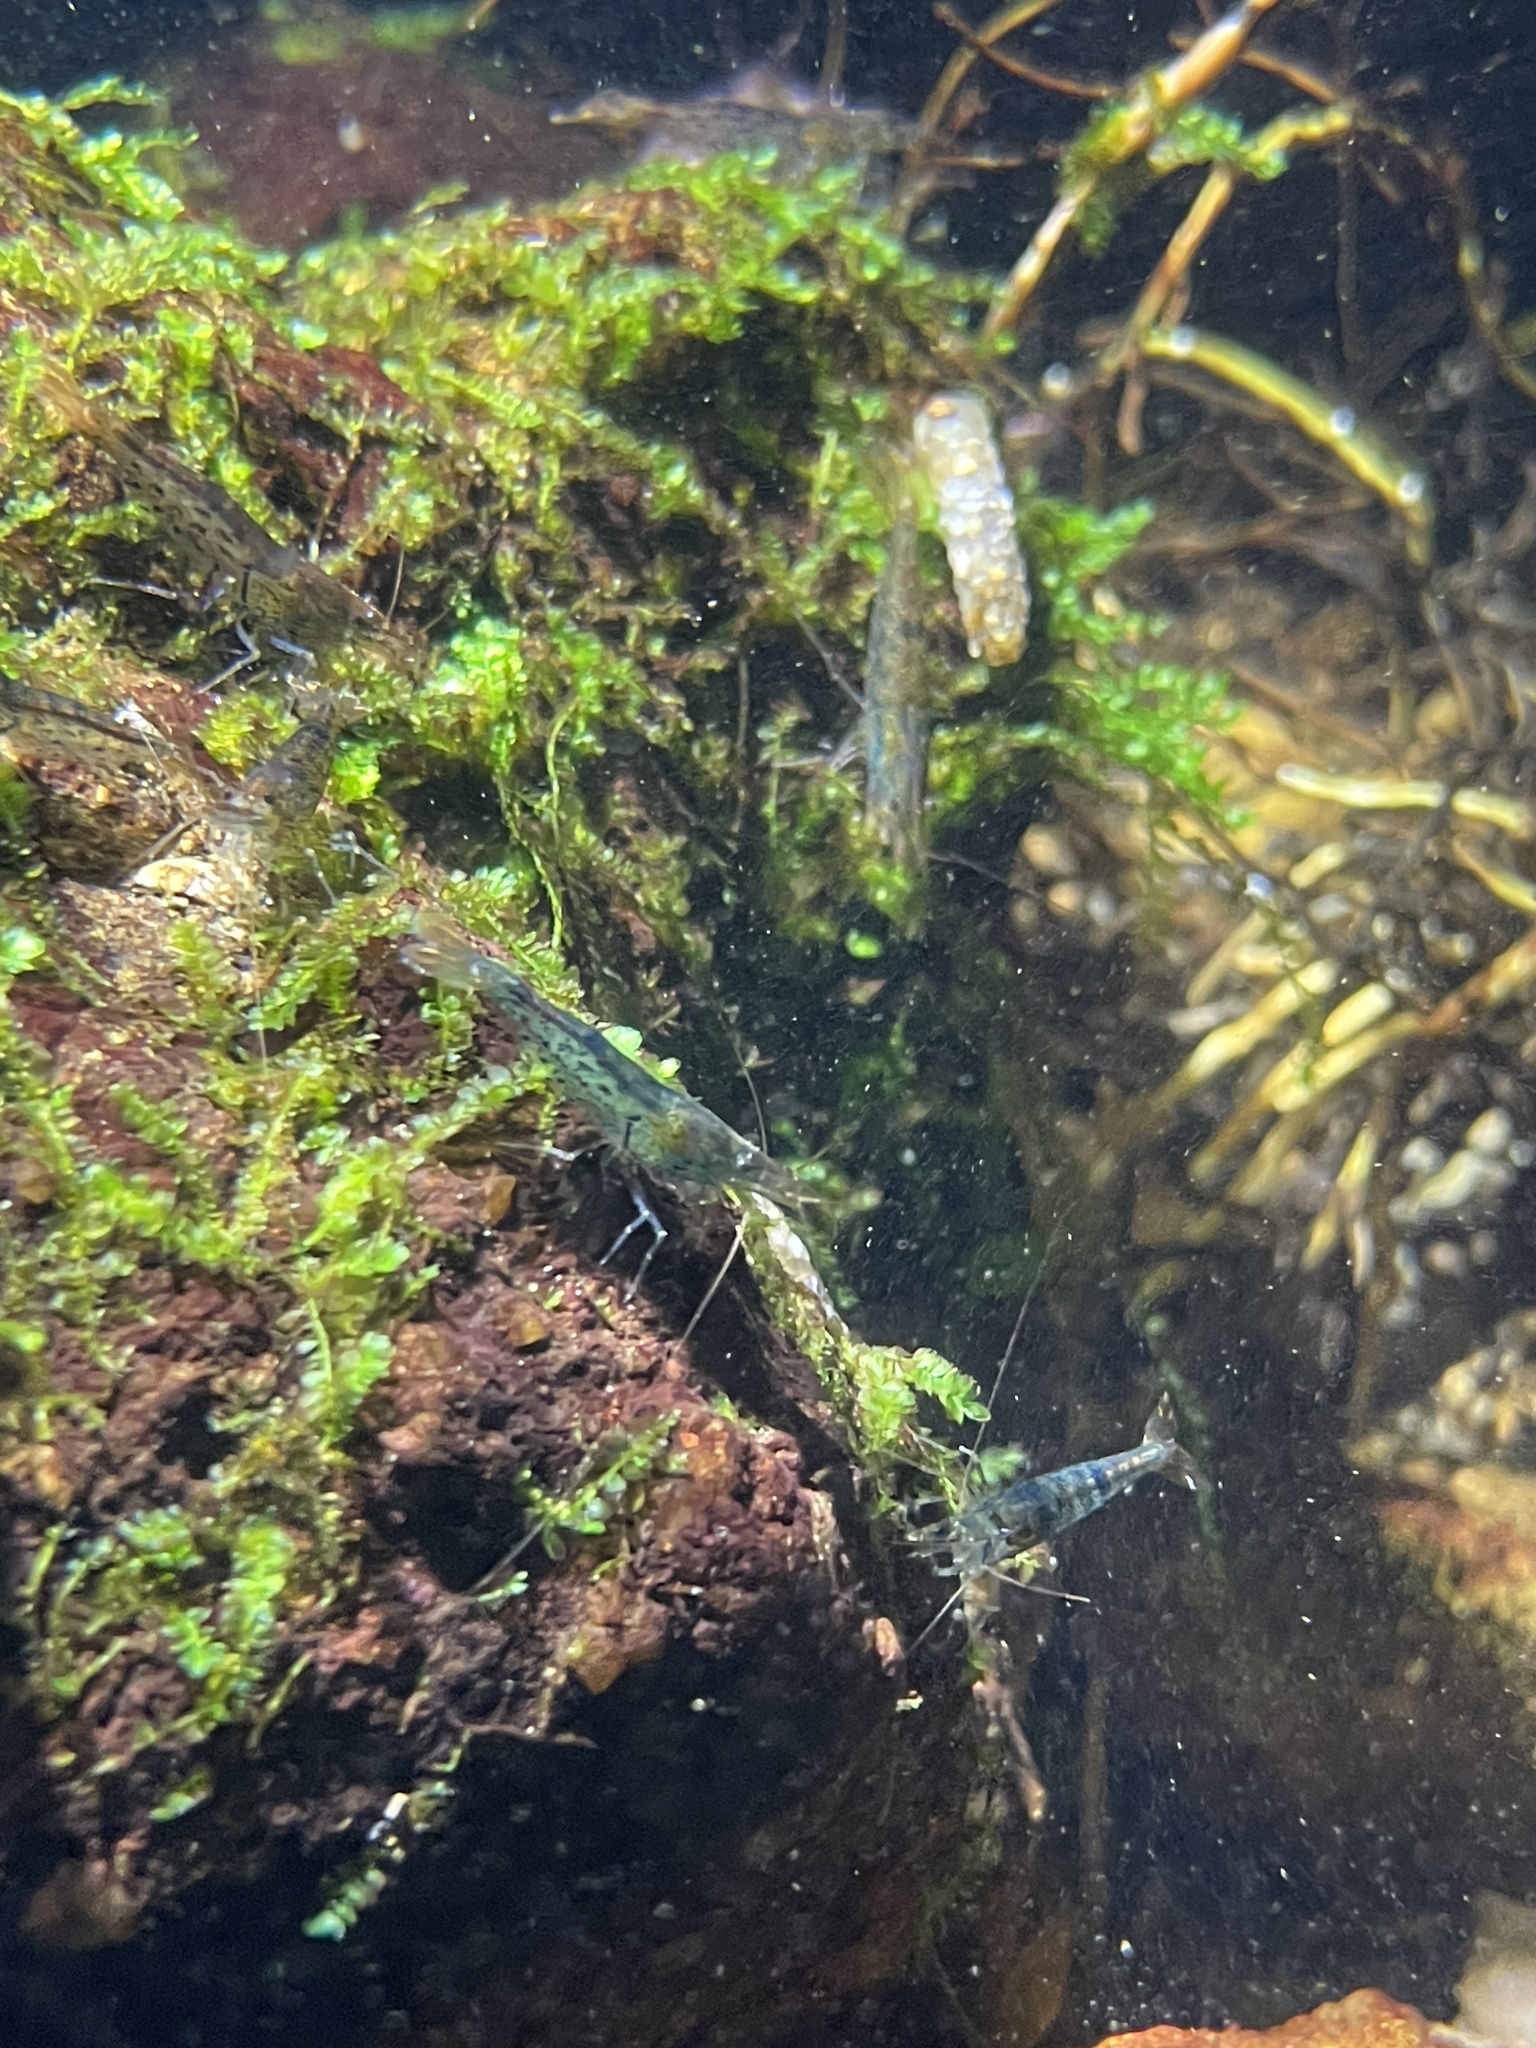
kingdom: Animalia
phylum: Arthropoda
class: Malacostraca
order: Decapoda
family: Atyidae
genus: Caridina
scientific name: Caridina cantonensis
